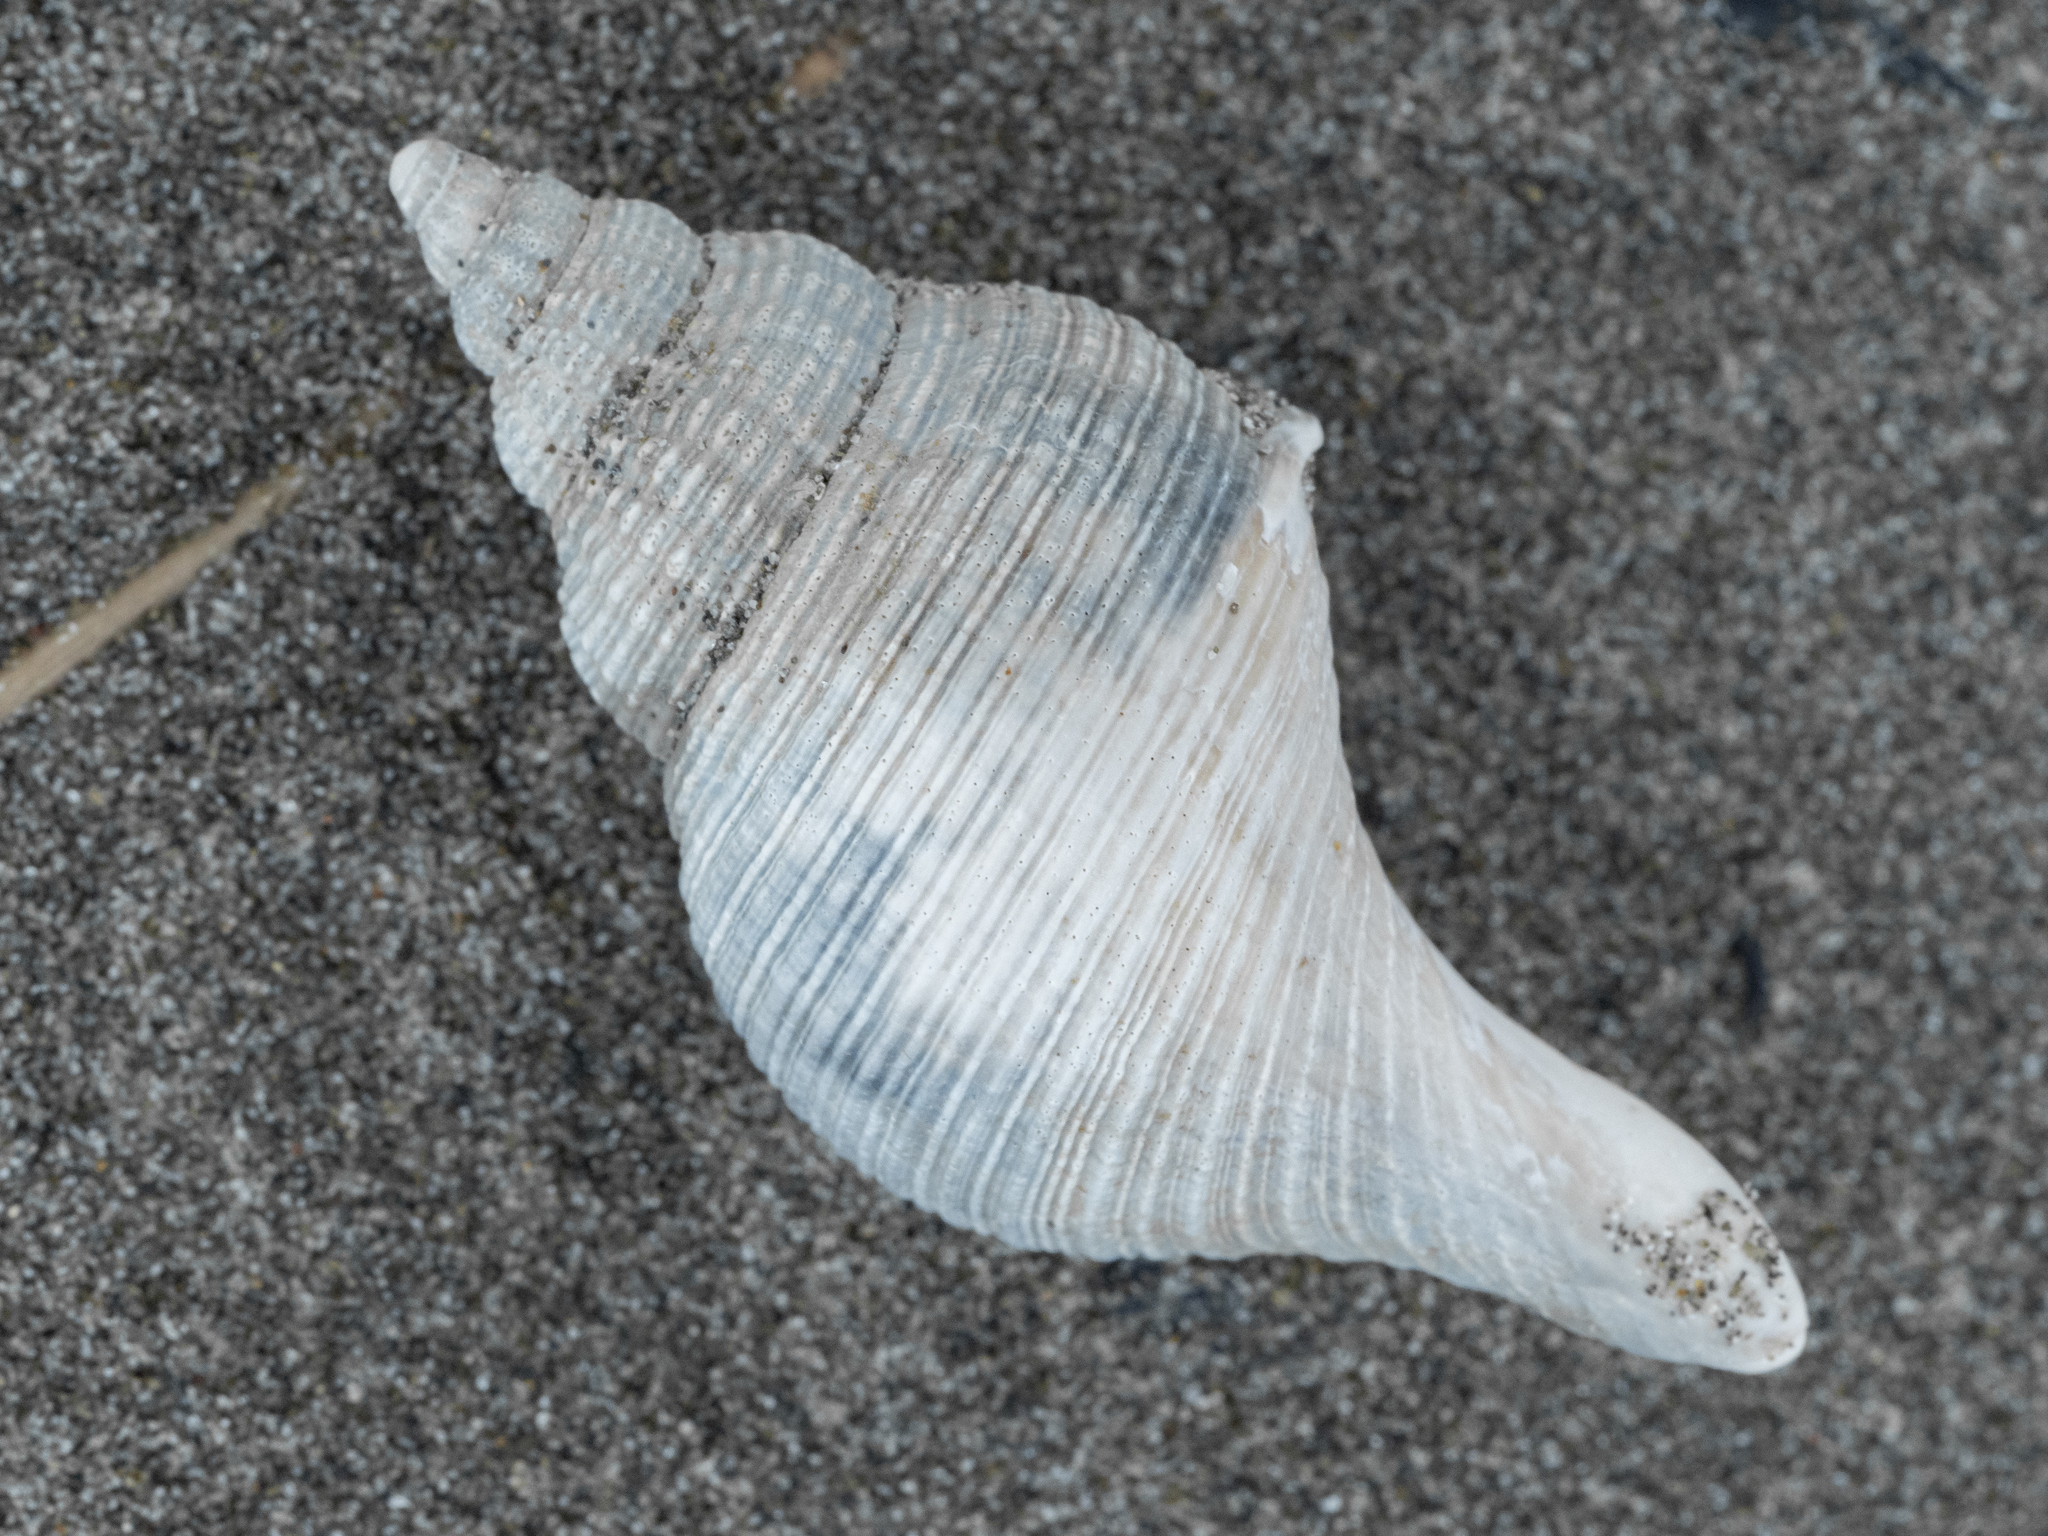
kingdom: Animalia
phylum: Mollusca
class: Gastropoda
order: Neogastropoda
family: Austrosiphonidae
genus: Penion
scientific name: Penion sulcatus
